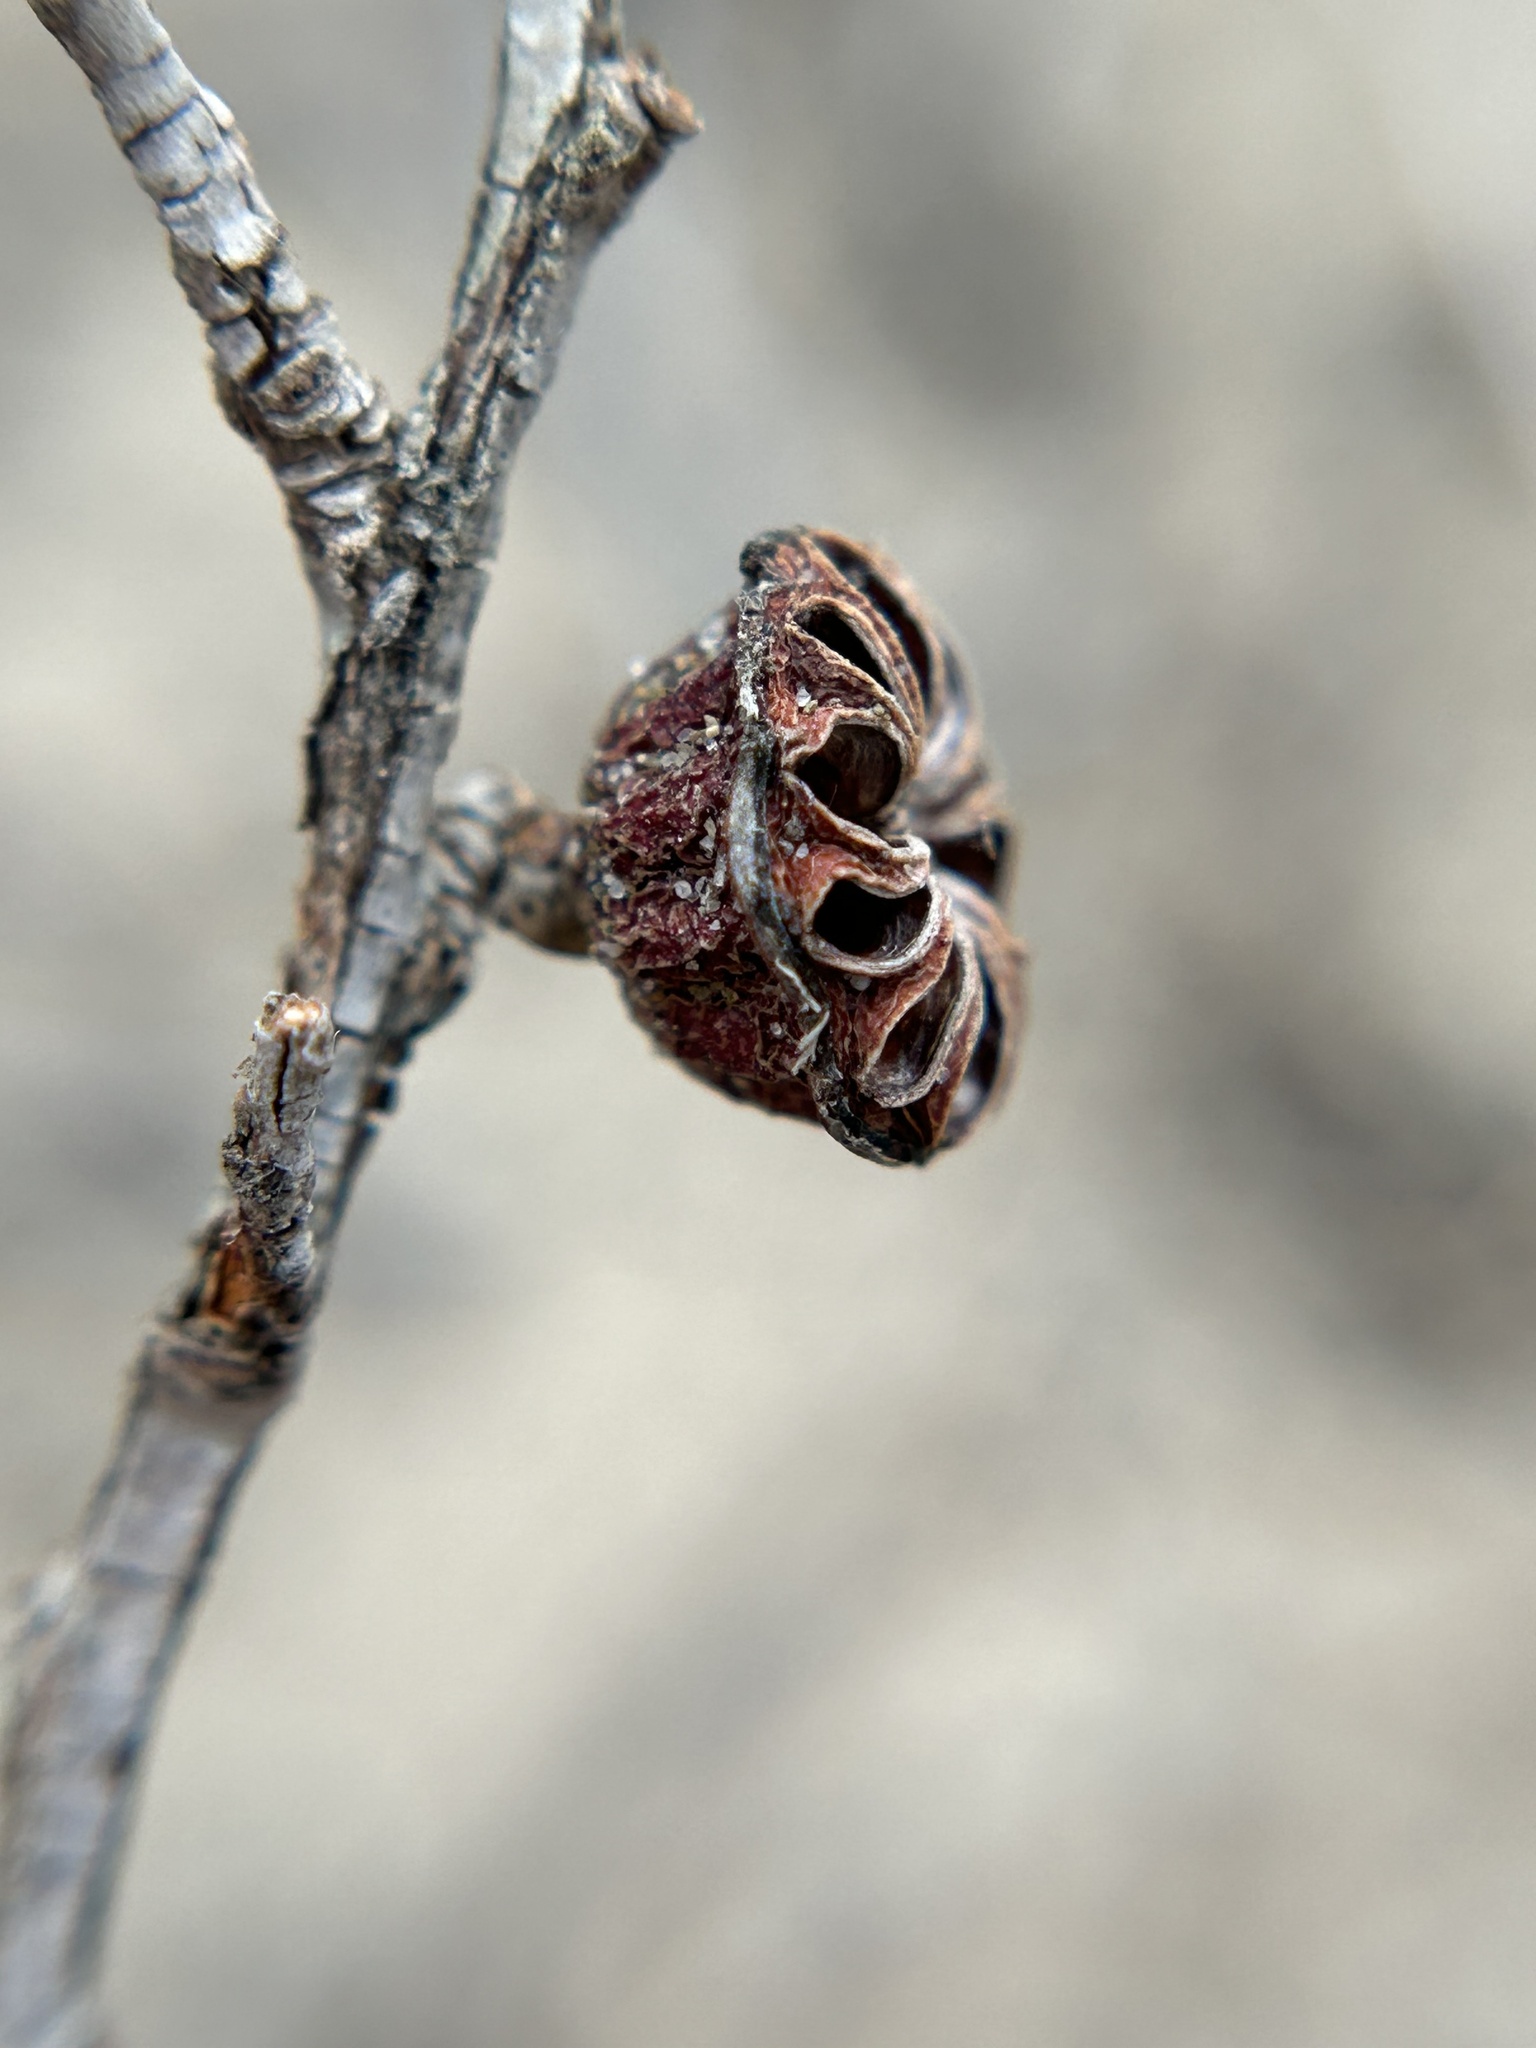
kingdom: Plantae
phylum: Tracheophyta
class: Magnoliopsida
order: Myrtales
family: Myrtaceae
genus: Leptospermum
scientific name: Leptospermum laevigatum
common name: Australian teatree
